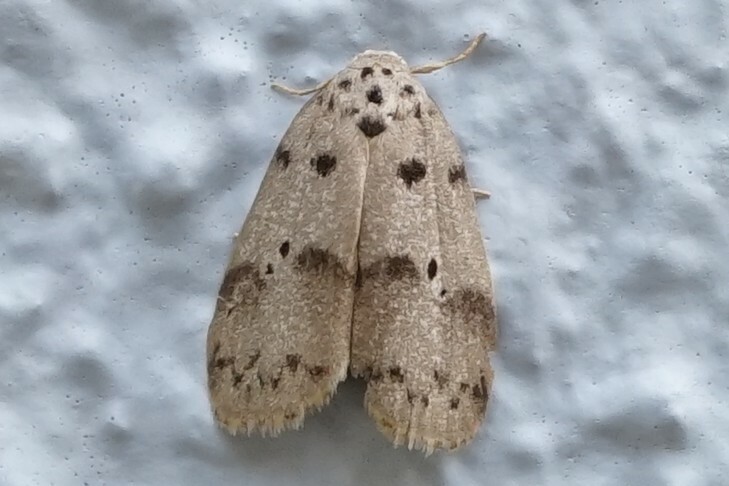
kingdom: Animalia
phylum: Arthropoda
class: Insecta
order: Lepidoptera
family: Erebidae
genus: Eugoa
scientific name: Eugoa grisea
